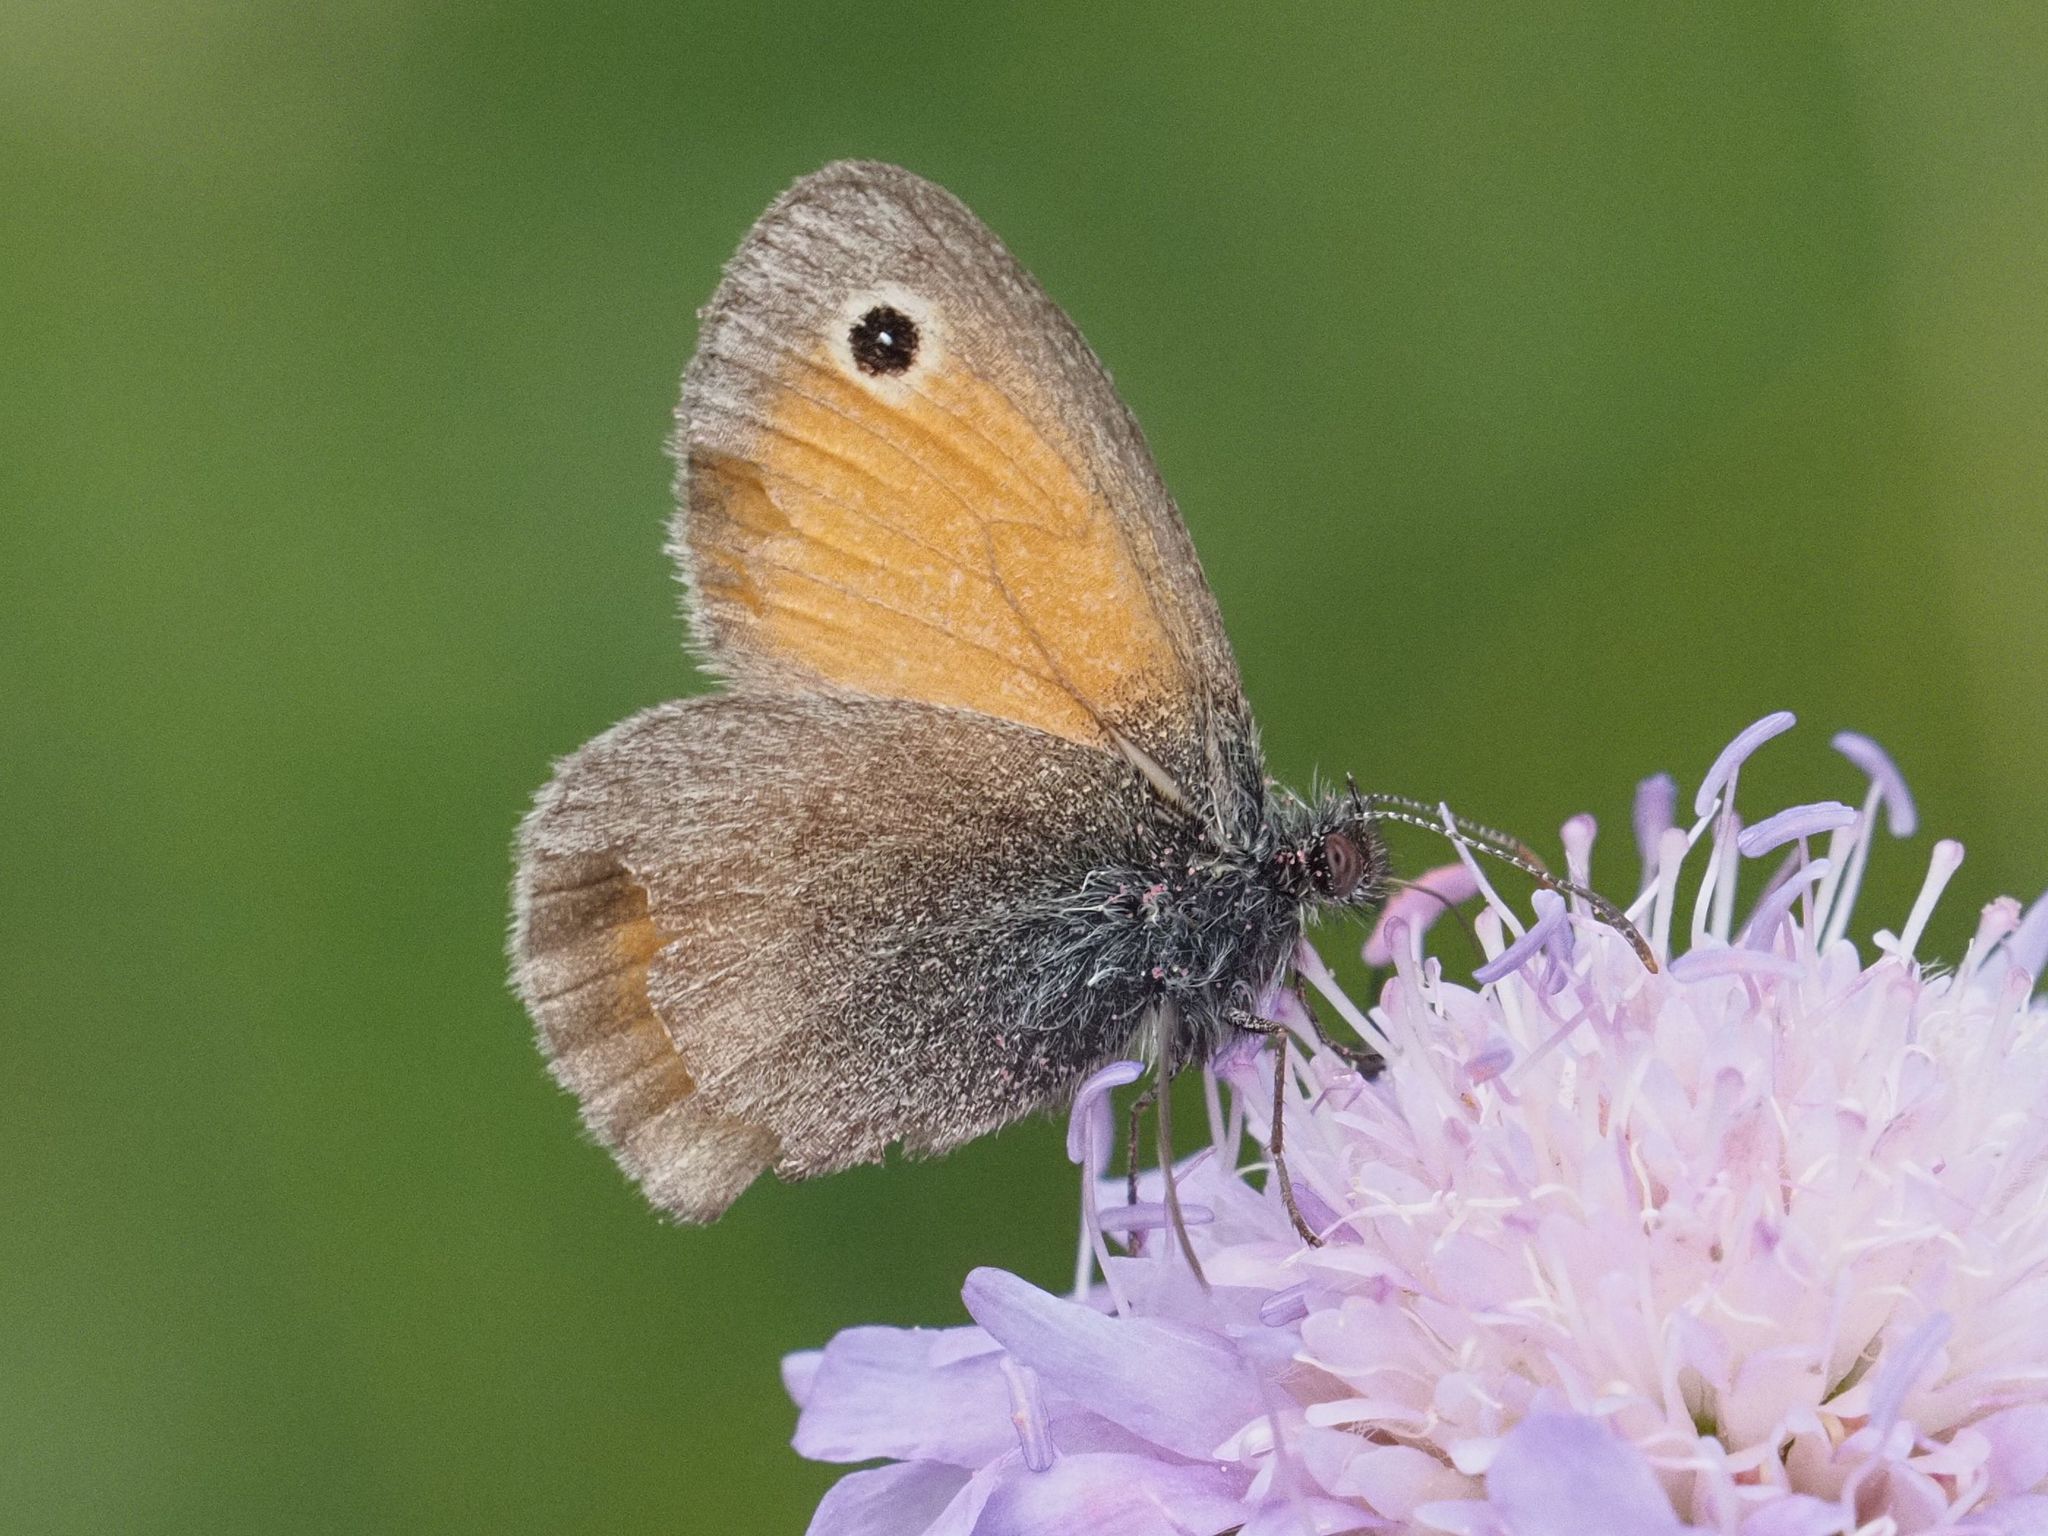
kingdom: Animalia
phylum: Arthropoda
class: Insecta
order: Lepidoptera
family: Nymphalidae
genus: Coenonympha
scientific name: Coenonympha pamphilus
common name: Small heath
